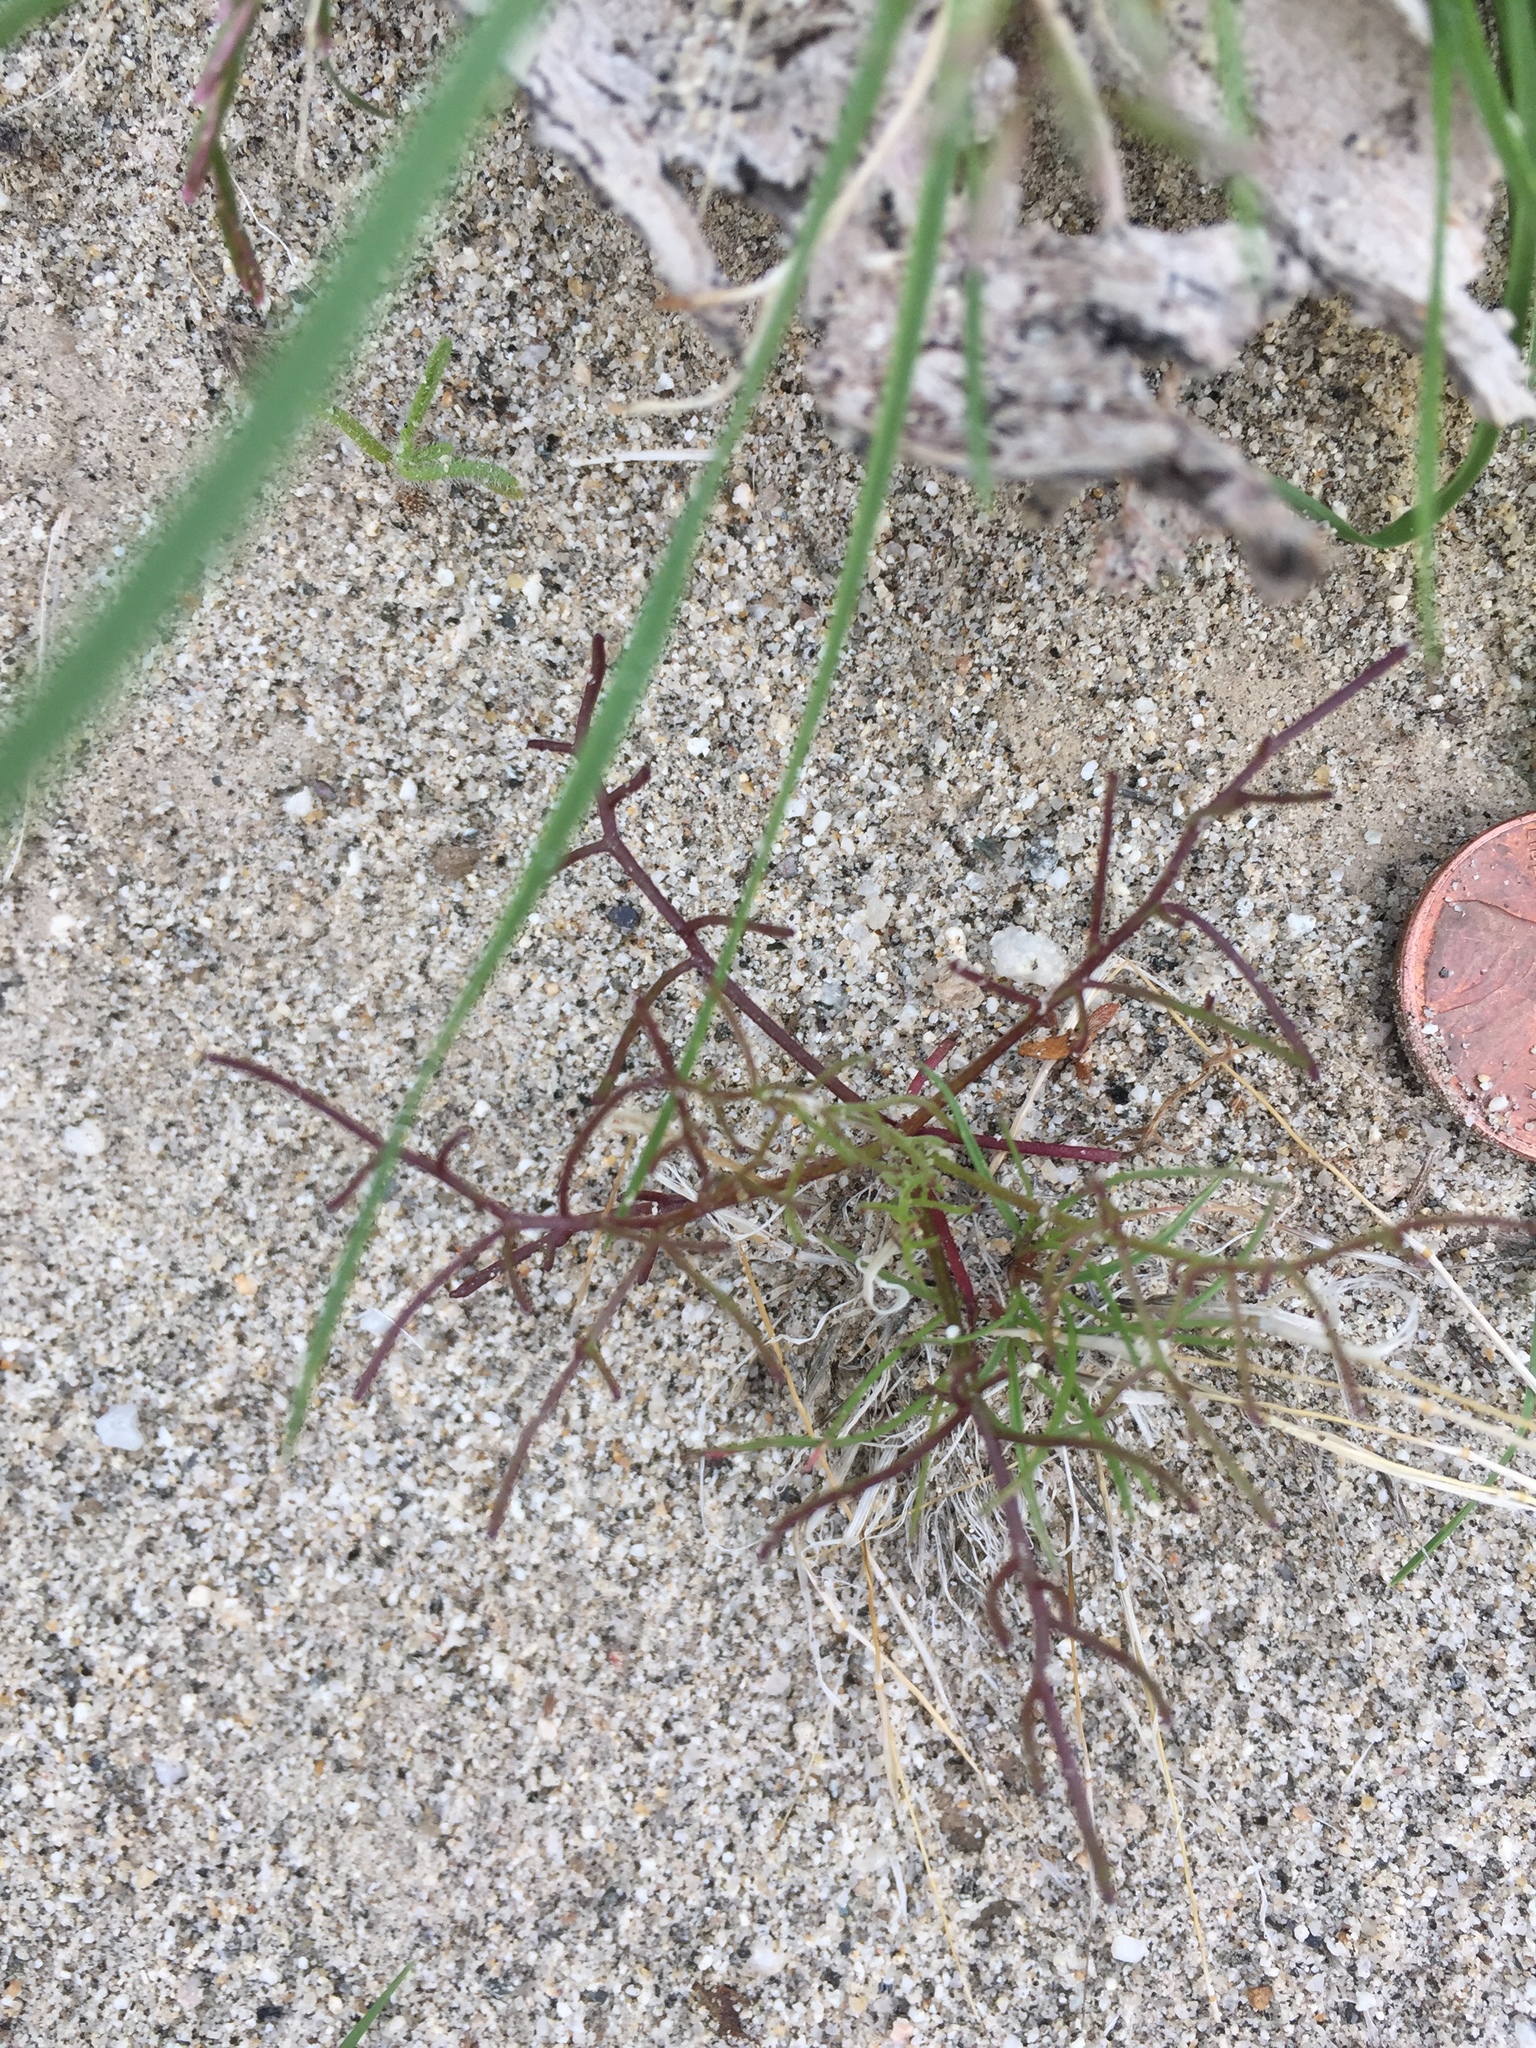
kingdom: Plantae
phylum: Tracheophyta
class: Magnoliopsida
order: Asterales
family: Asteraceae
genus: Chaenactis
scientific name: Chaenactis carphoclinia
